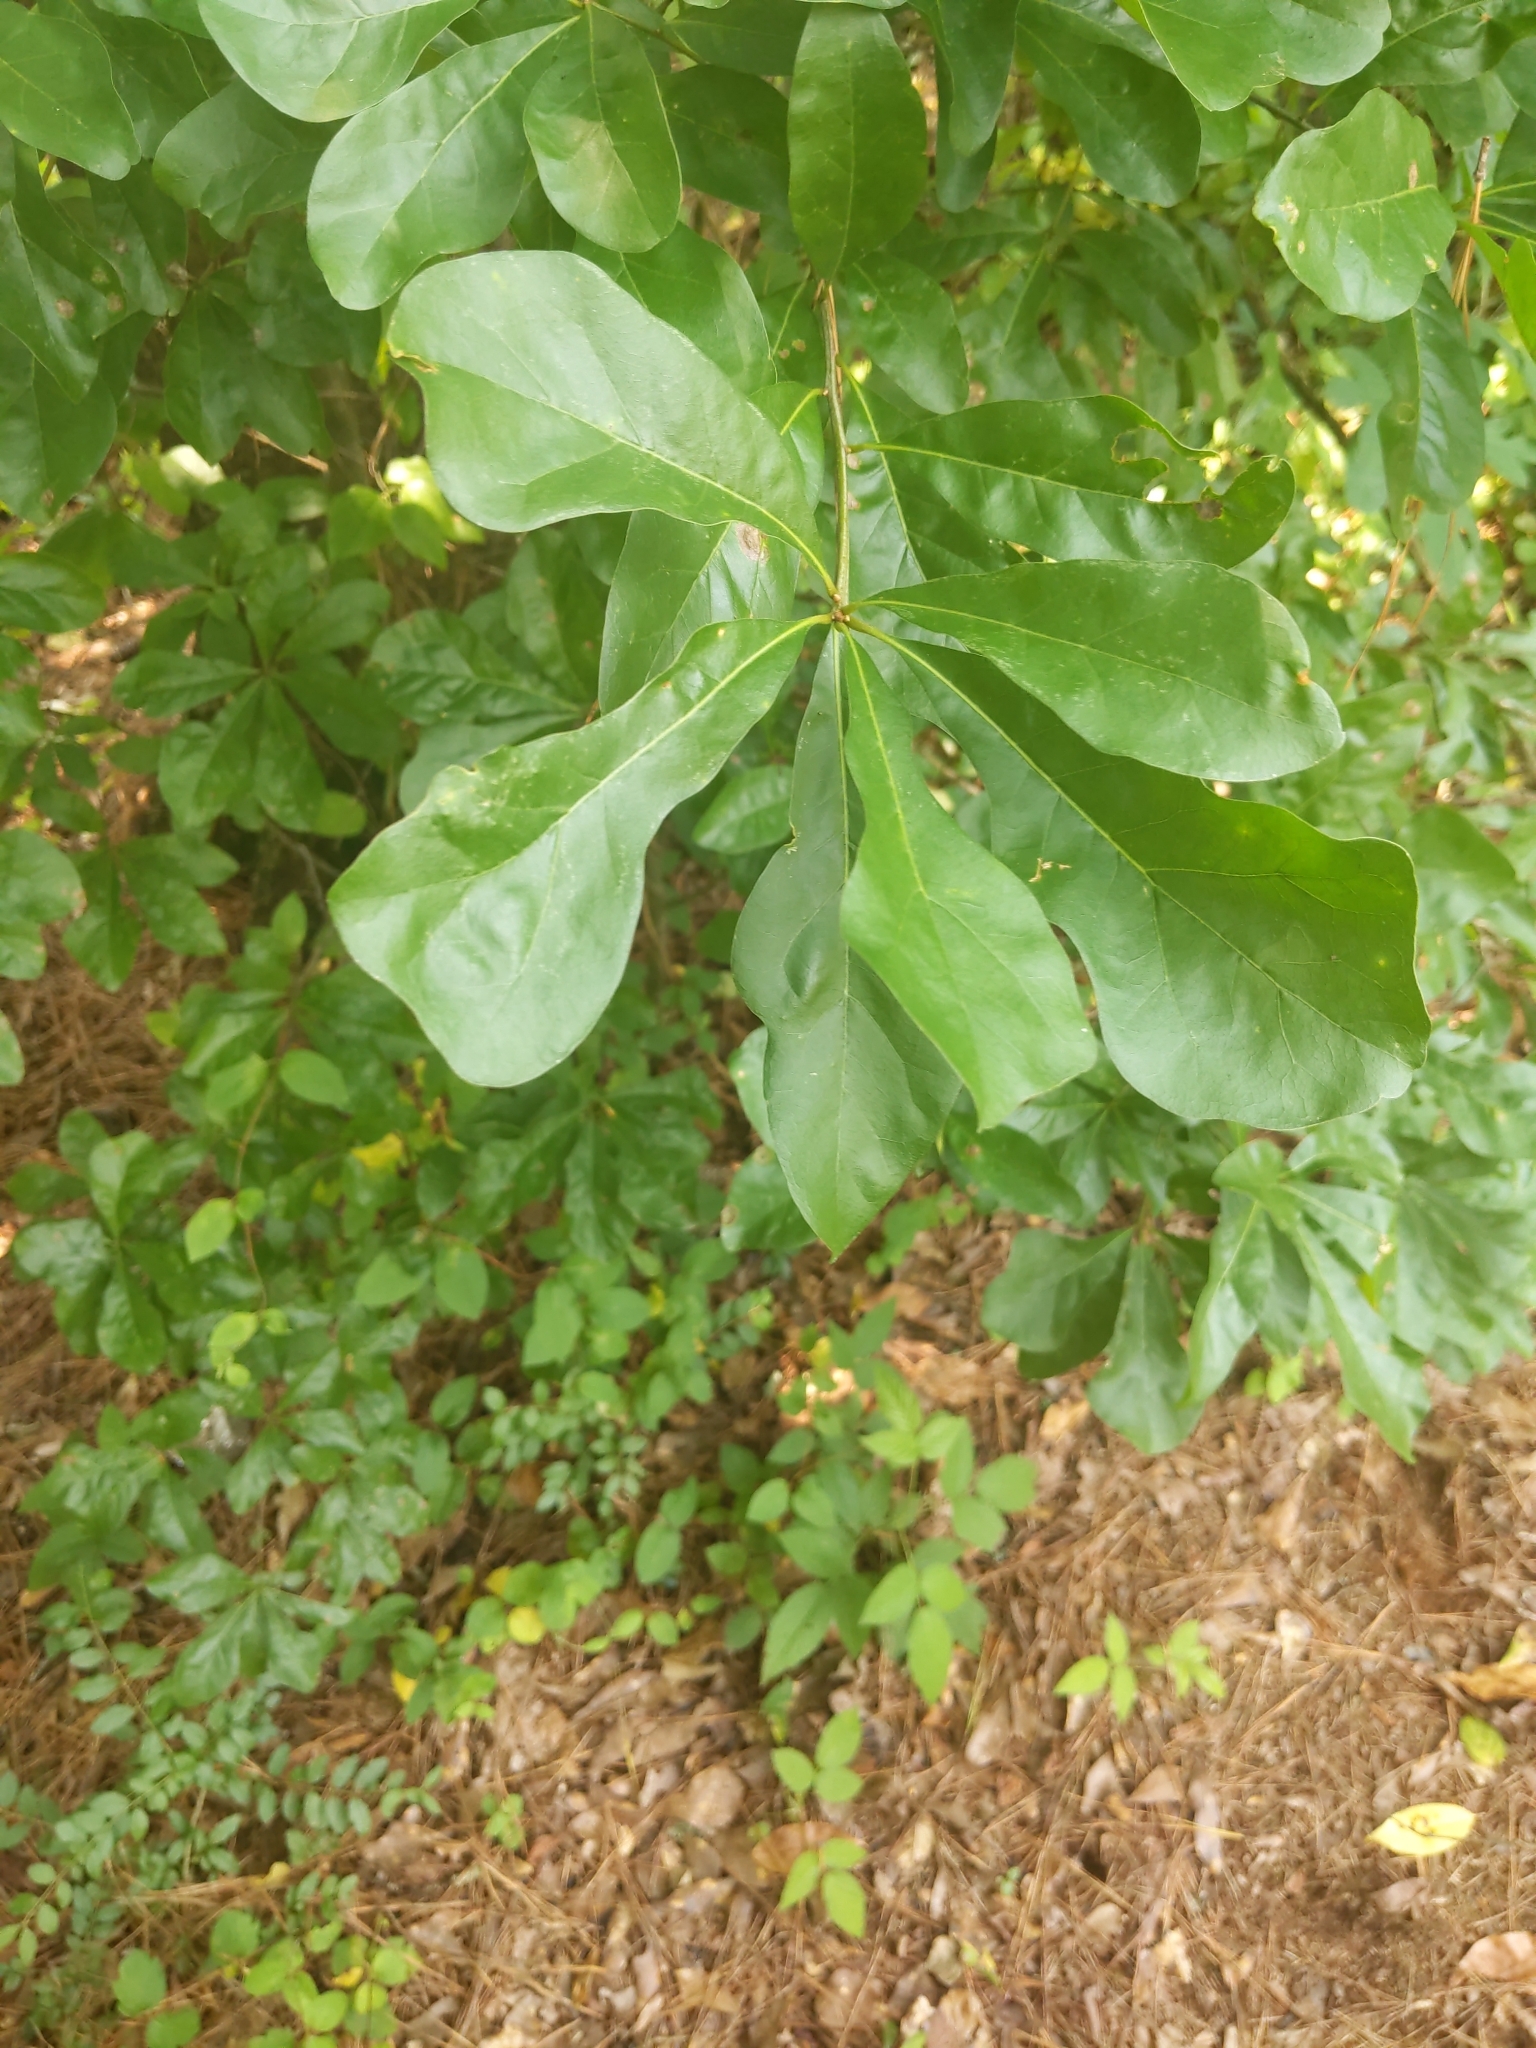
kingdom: Plantae
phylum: Tracheophyta
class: Magnoliopsida
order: Fagales
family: Fagaceae
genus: Quercus
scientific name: Quercus nigra
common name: Water oak
